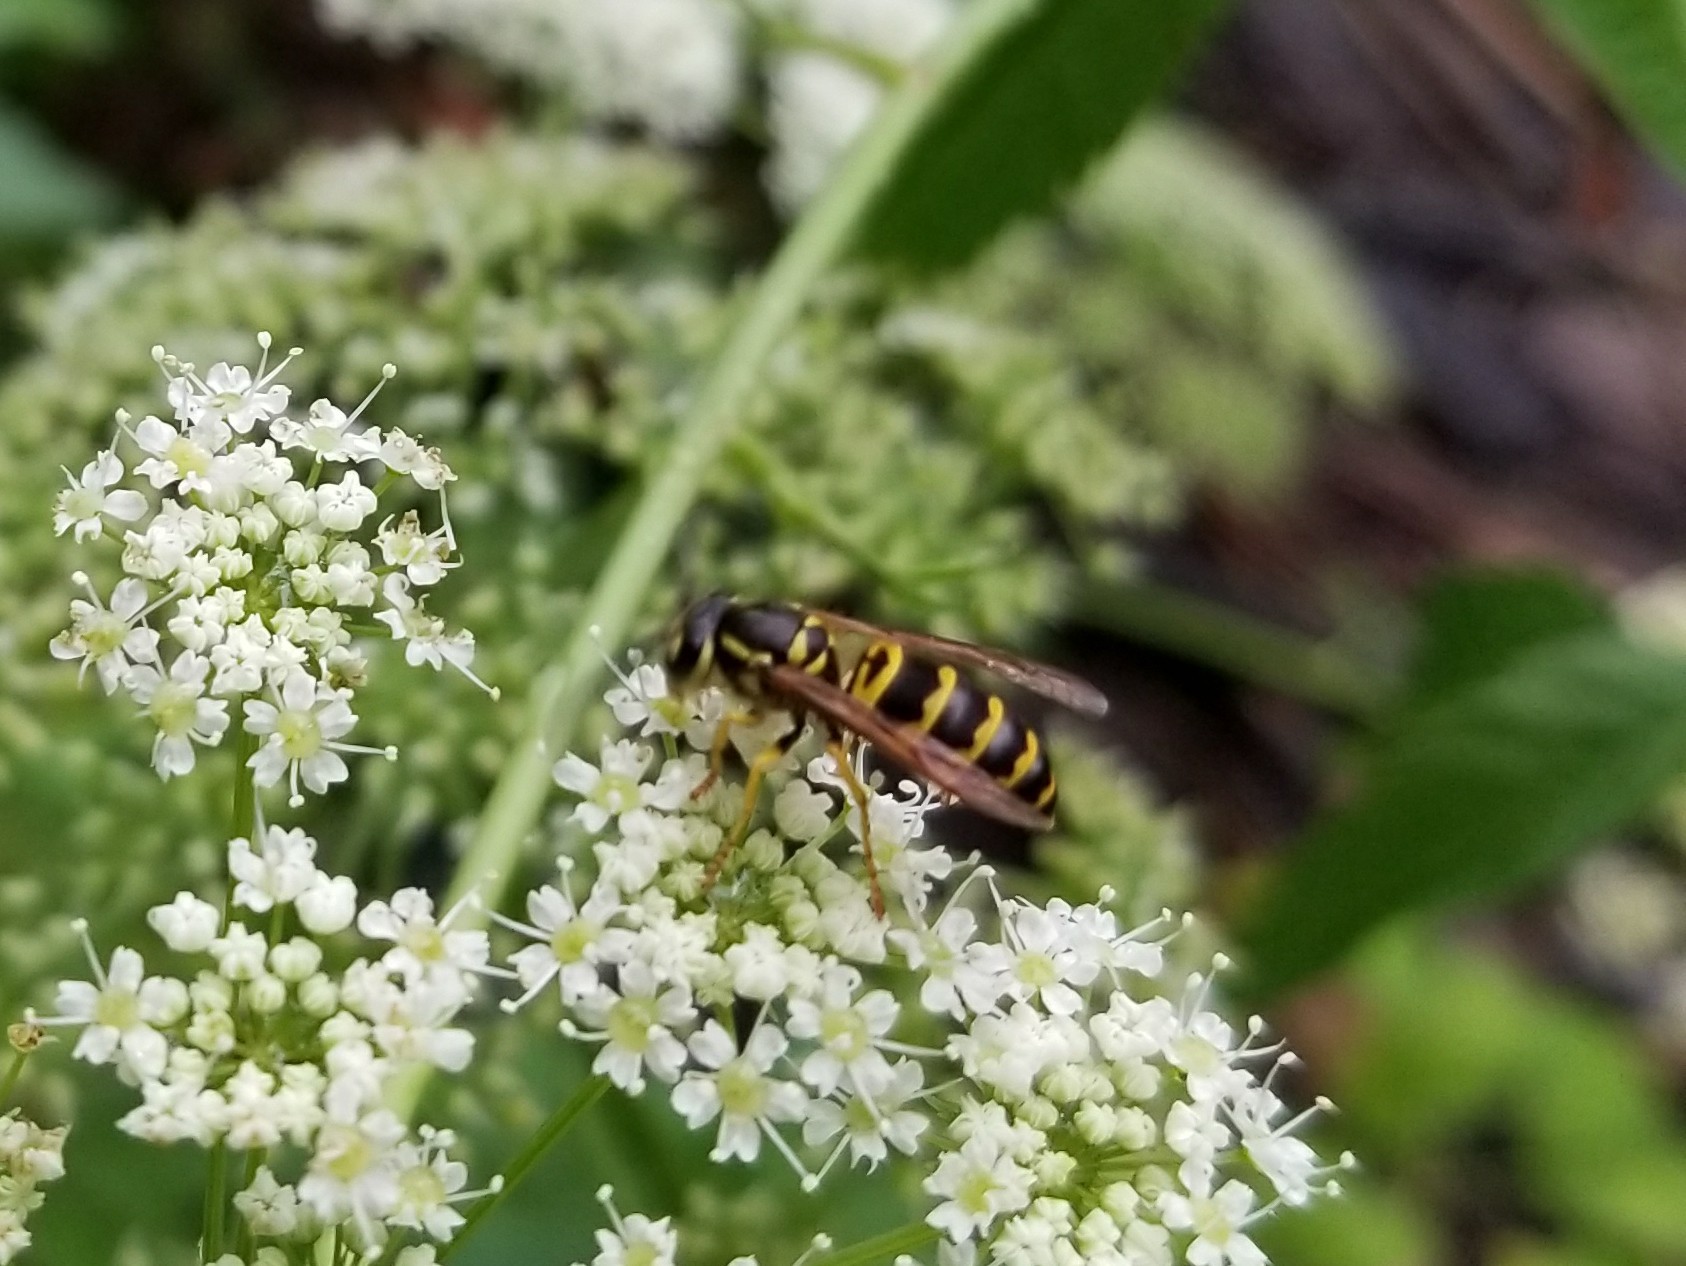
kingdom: Animalia
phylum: Arthropoda
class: Insecta
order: Hymenoptera
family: Vespidae
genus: Vespula
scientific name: Vespula maculifrons
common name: Eastern yellowjacket
